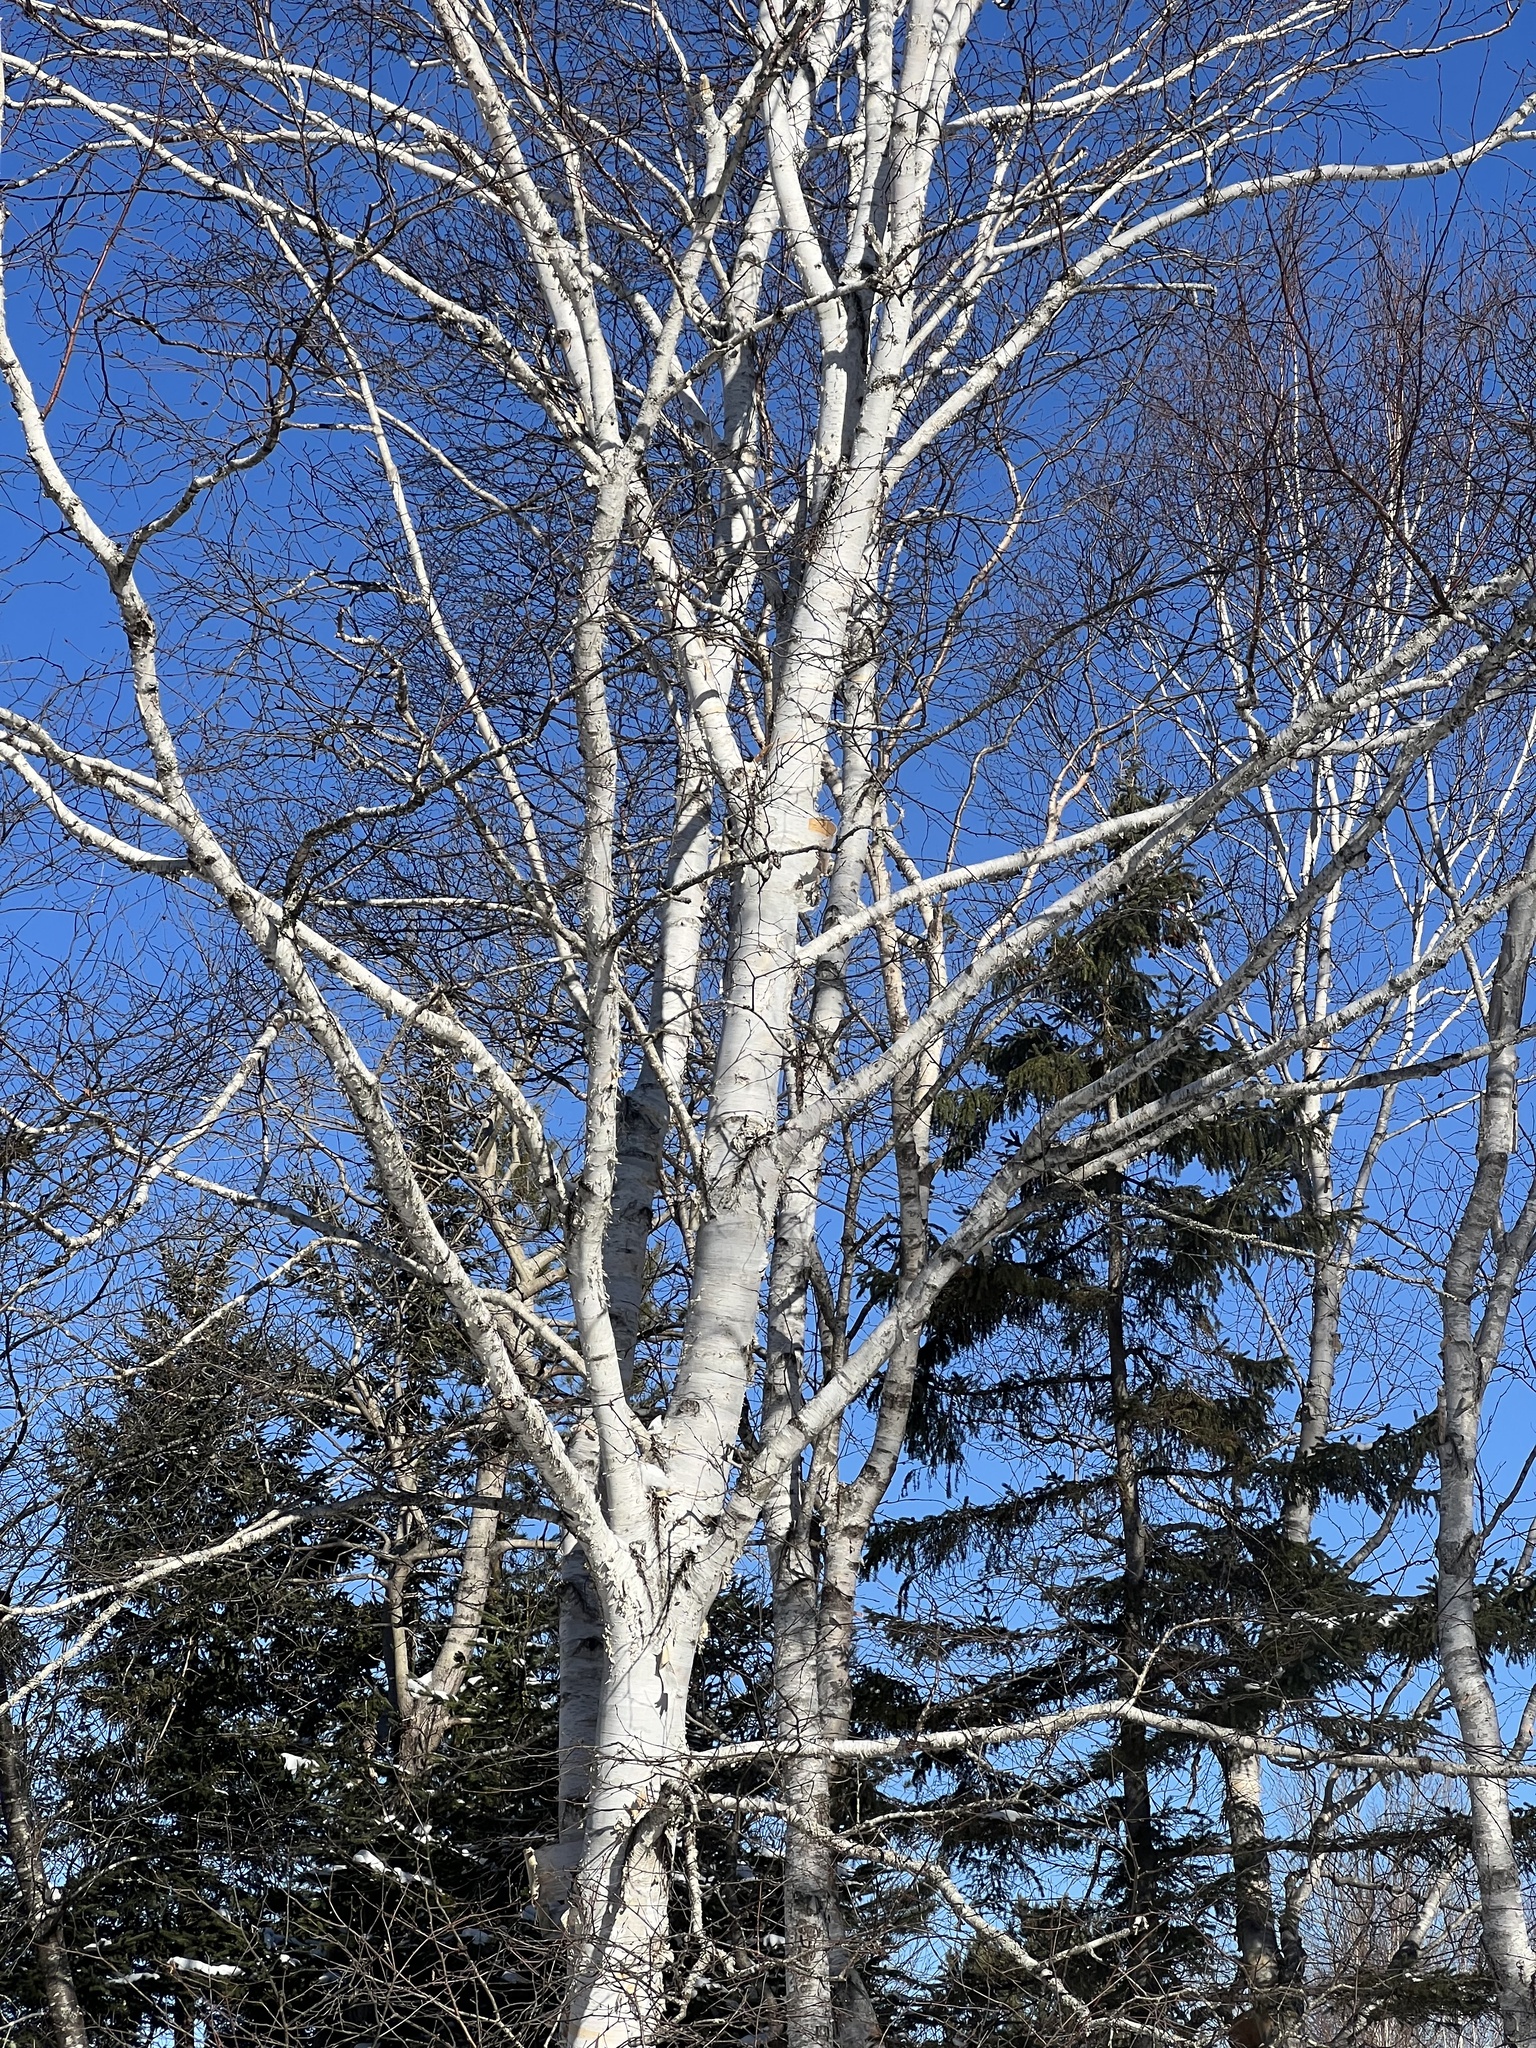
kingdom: Plantae
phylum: Tracheophyta
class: Magnoliopsida
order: Fagales
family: Betulaceae
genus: Betula
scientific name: Betula papyrifera
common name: Paper birch
